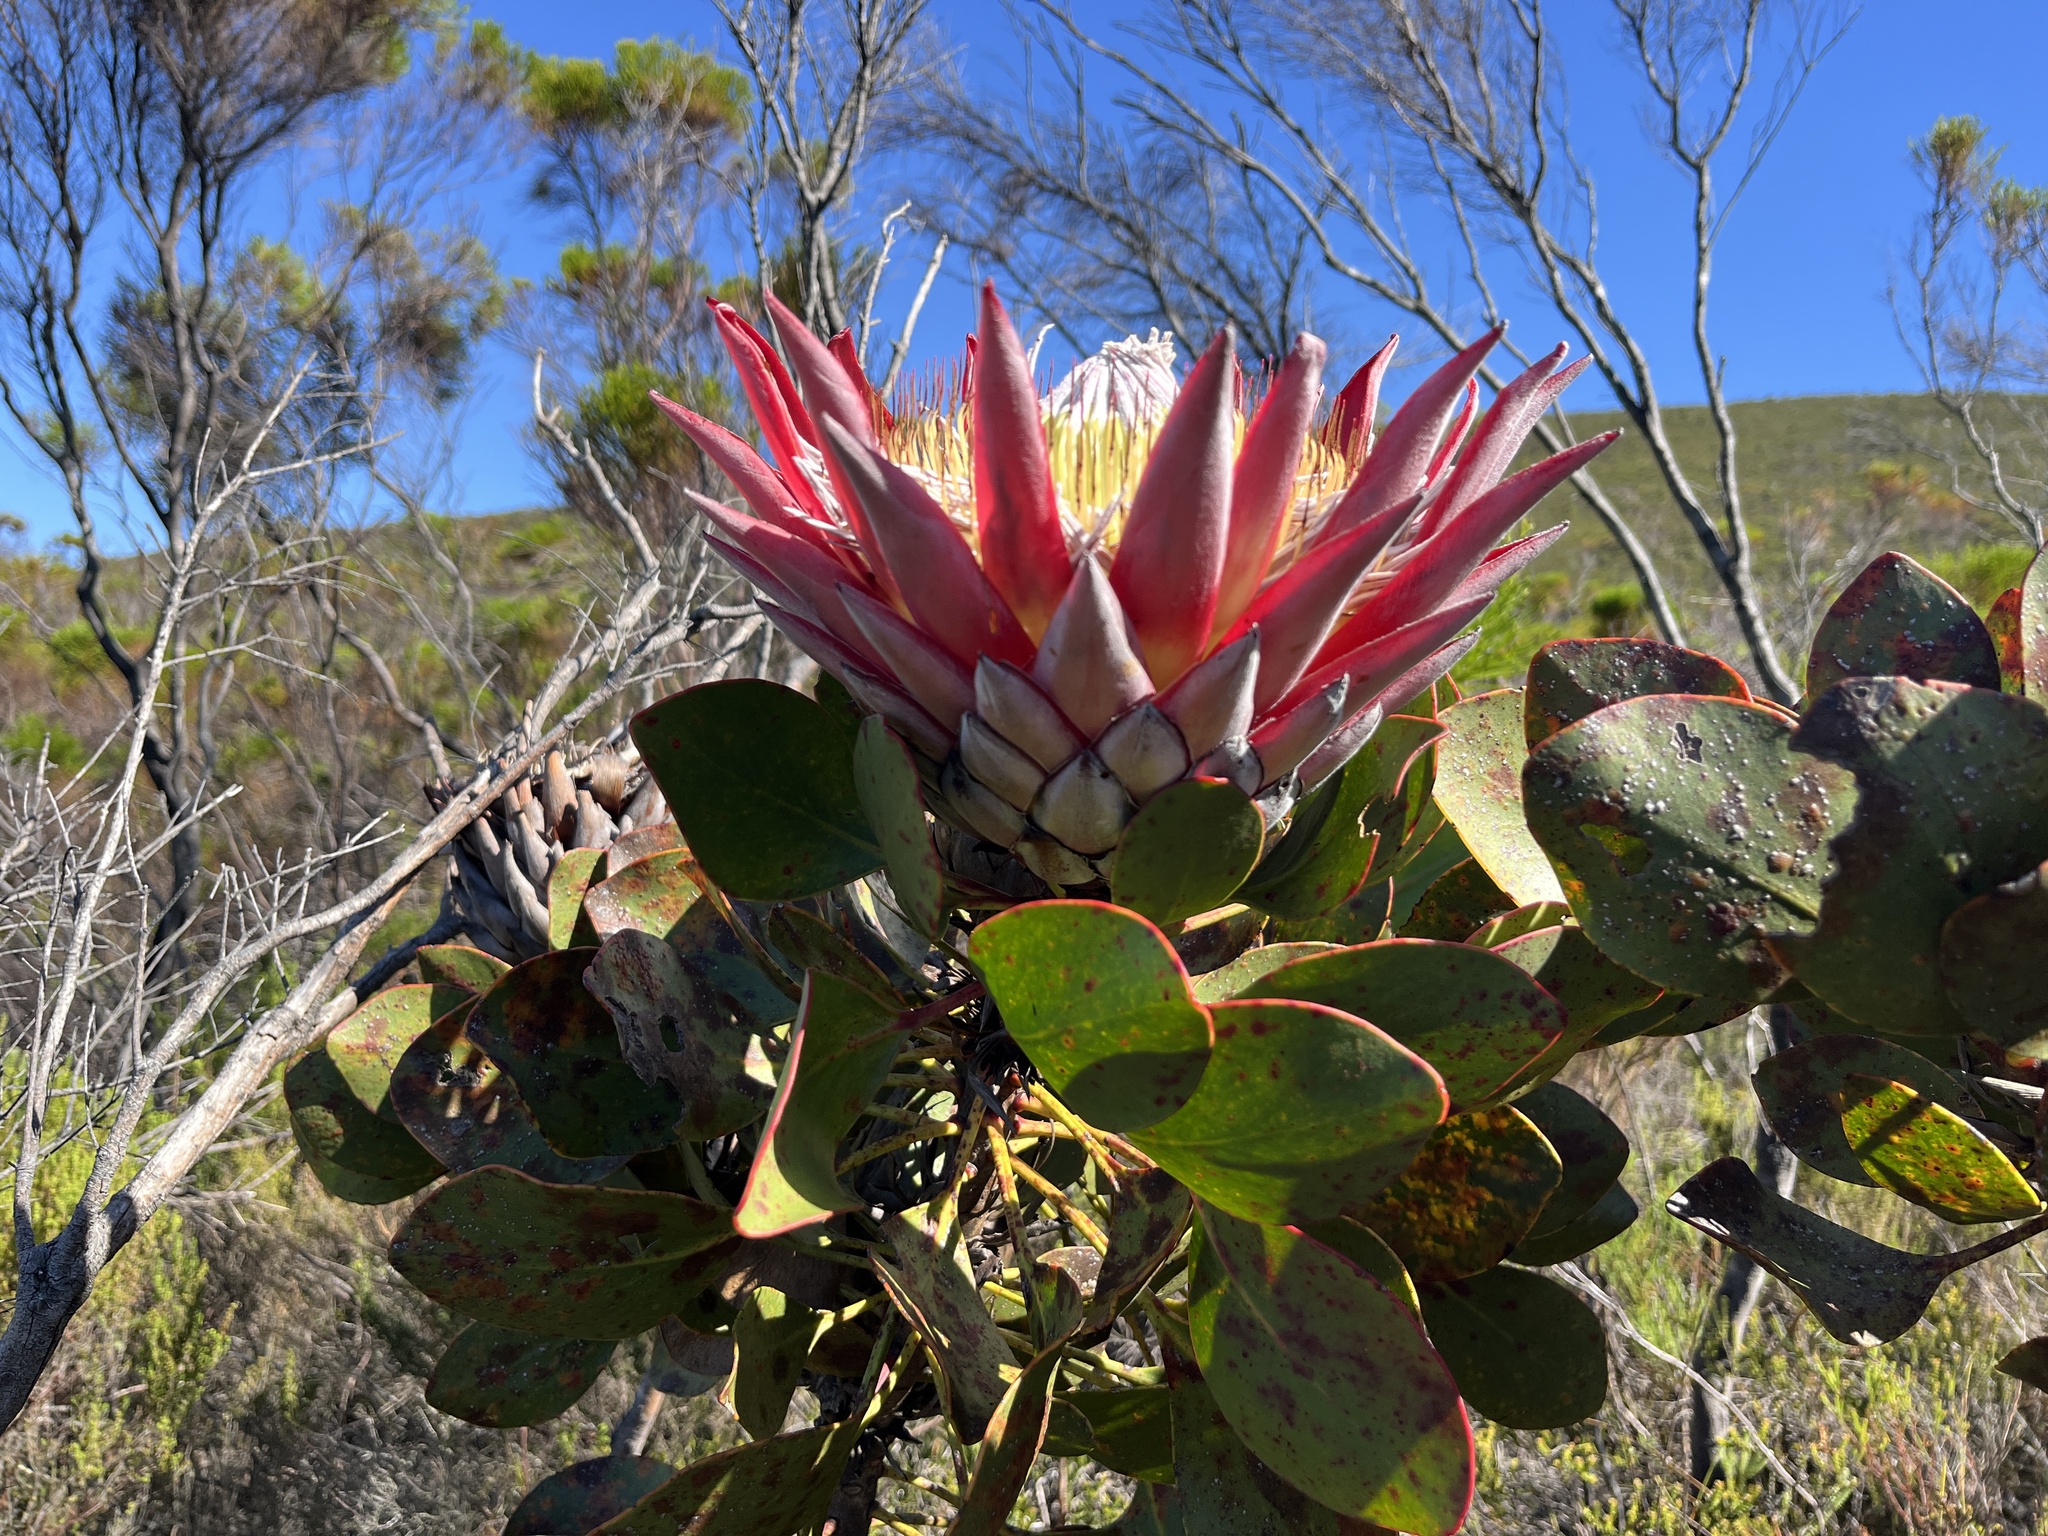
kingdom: Plantae
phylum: Tracheophyta
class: Magnoliopsida
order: Proteales
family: Proteaceae
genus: Protea
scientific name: Protea cynaroides
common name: King protea
